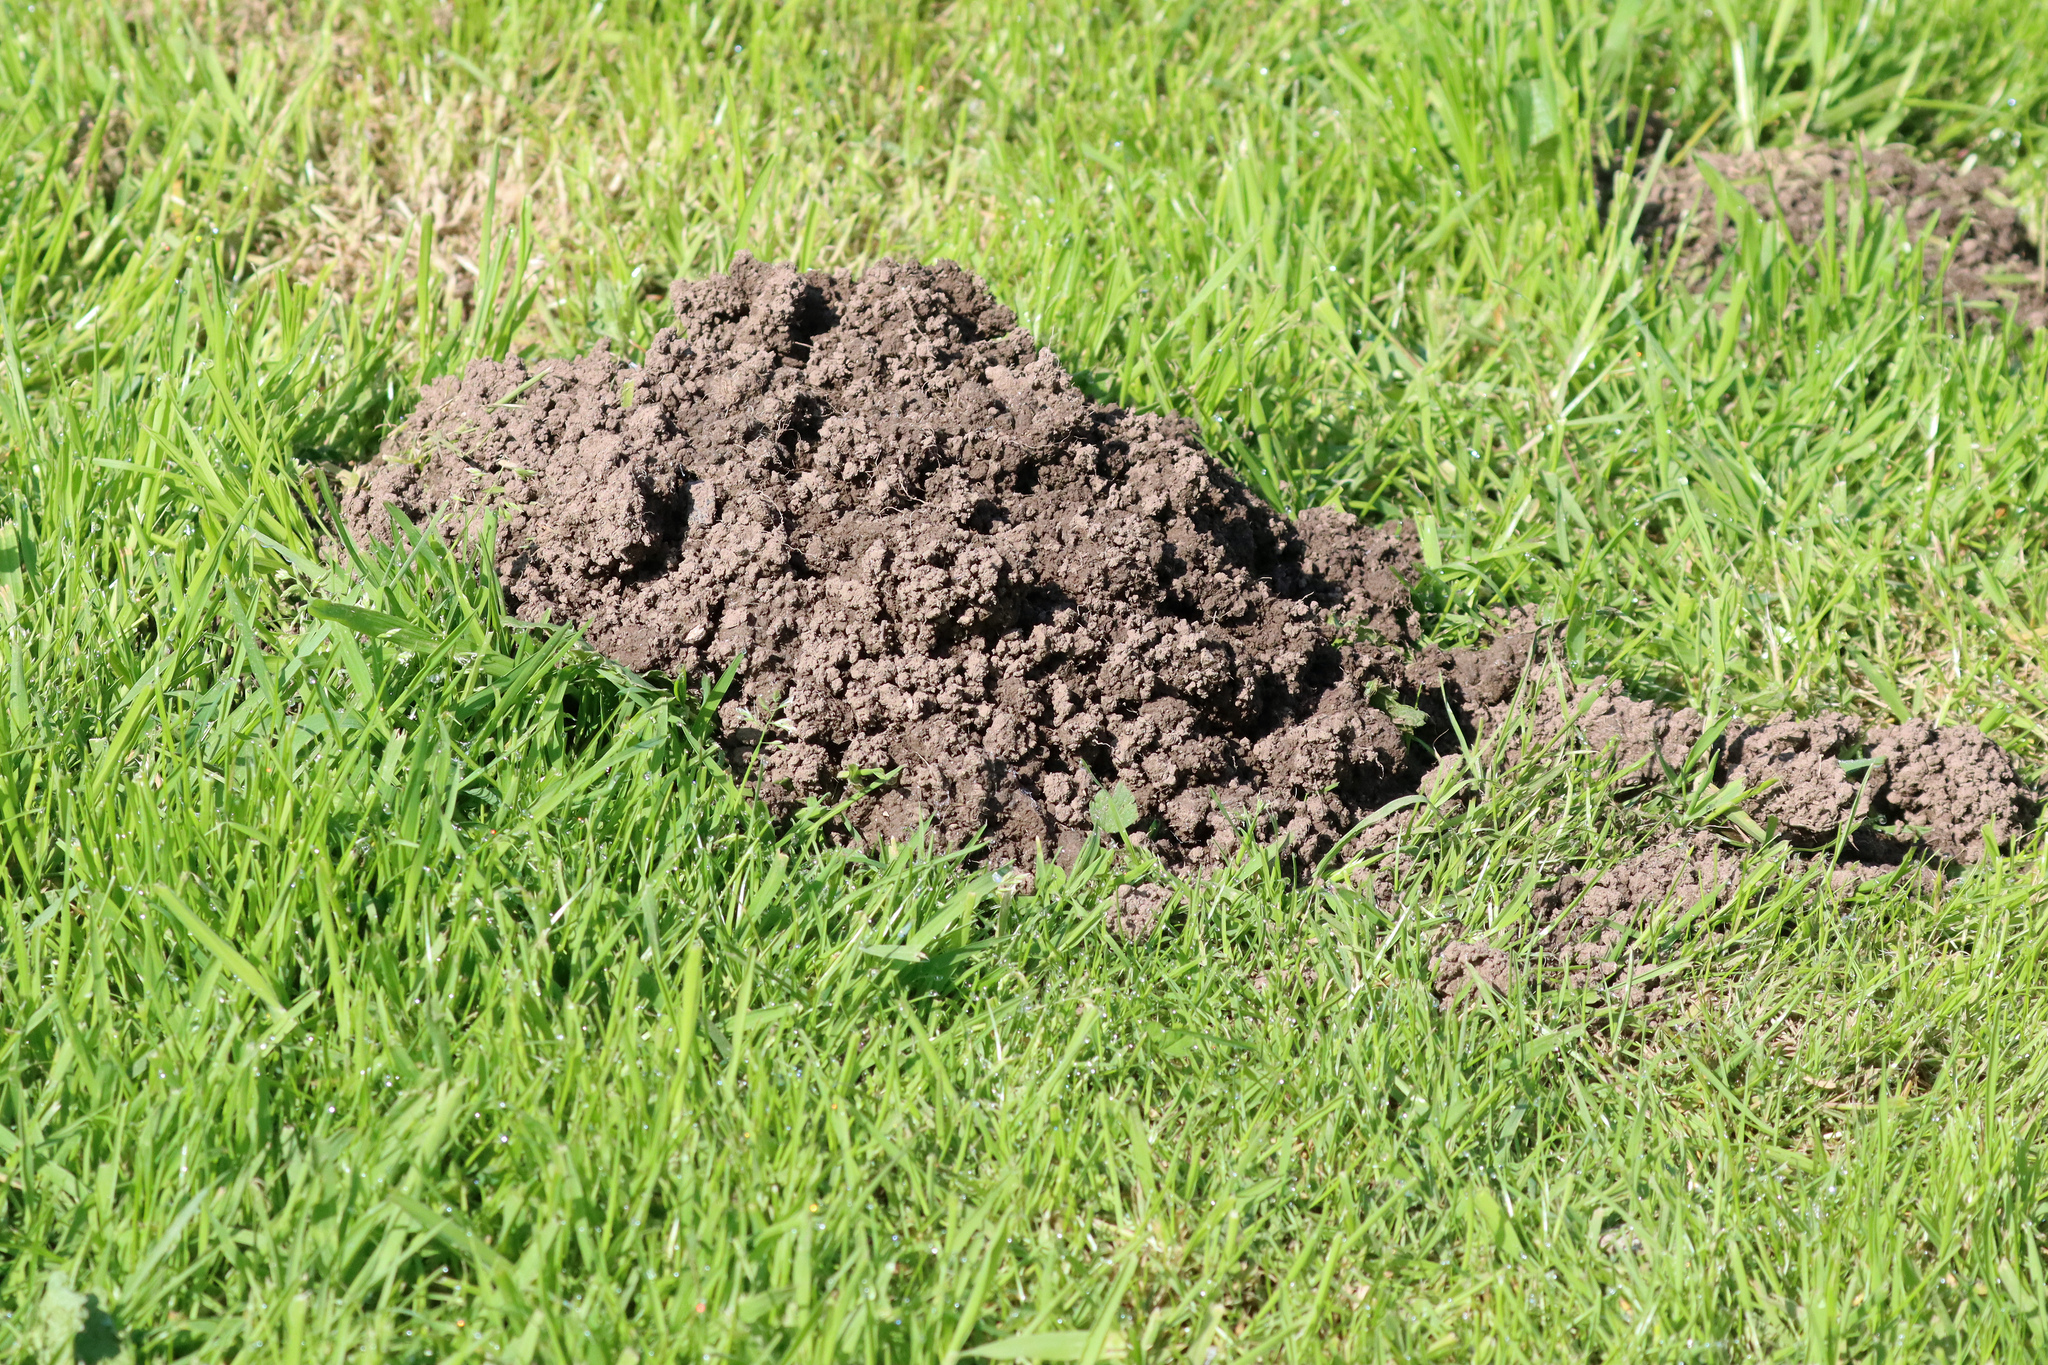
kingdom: Animalia
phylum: Chordata
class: Mammalia
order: Soricomorpha
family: Talpidae
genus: Talpa
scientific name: Talpa europaea
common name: European mole
